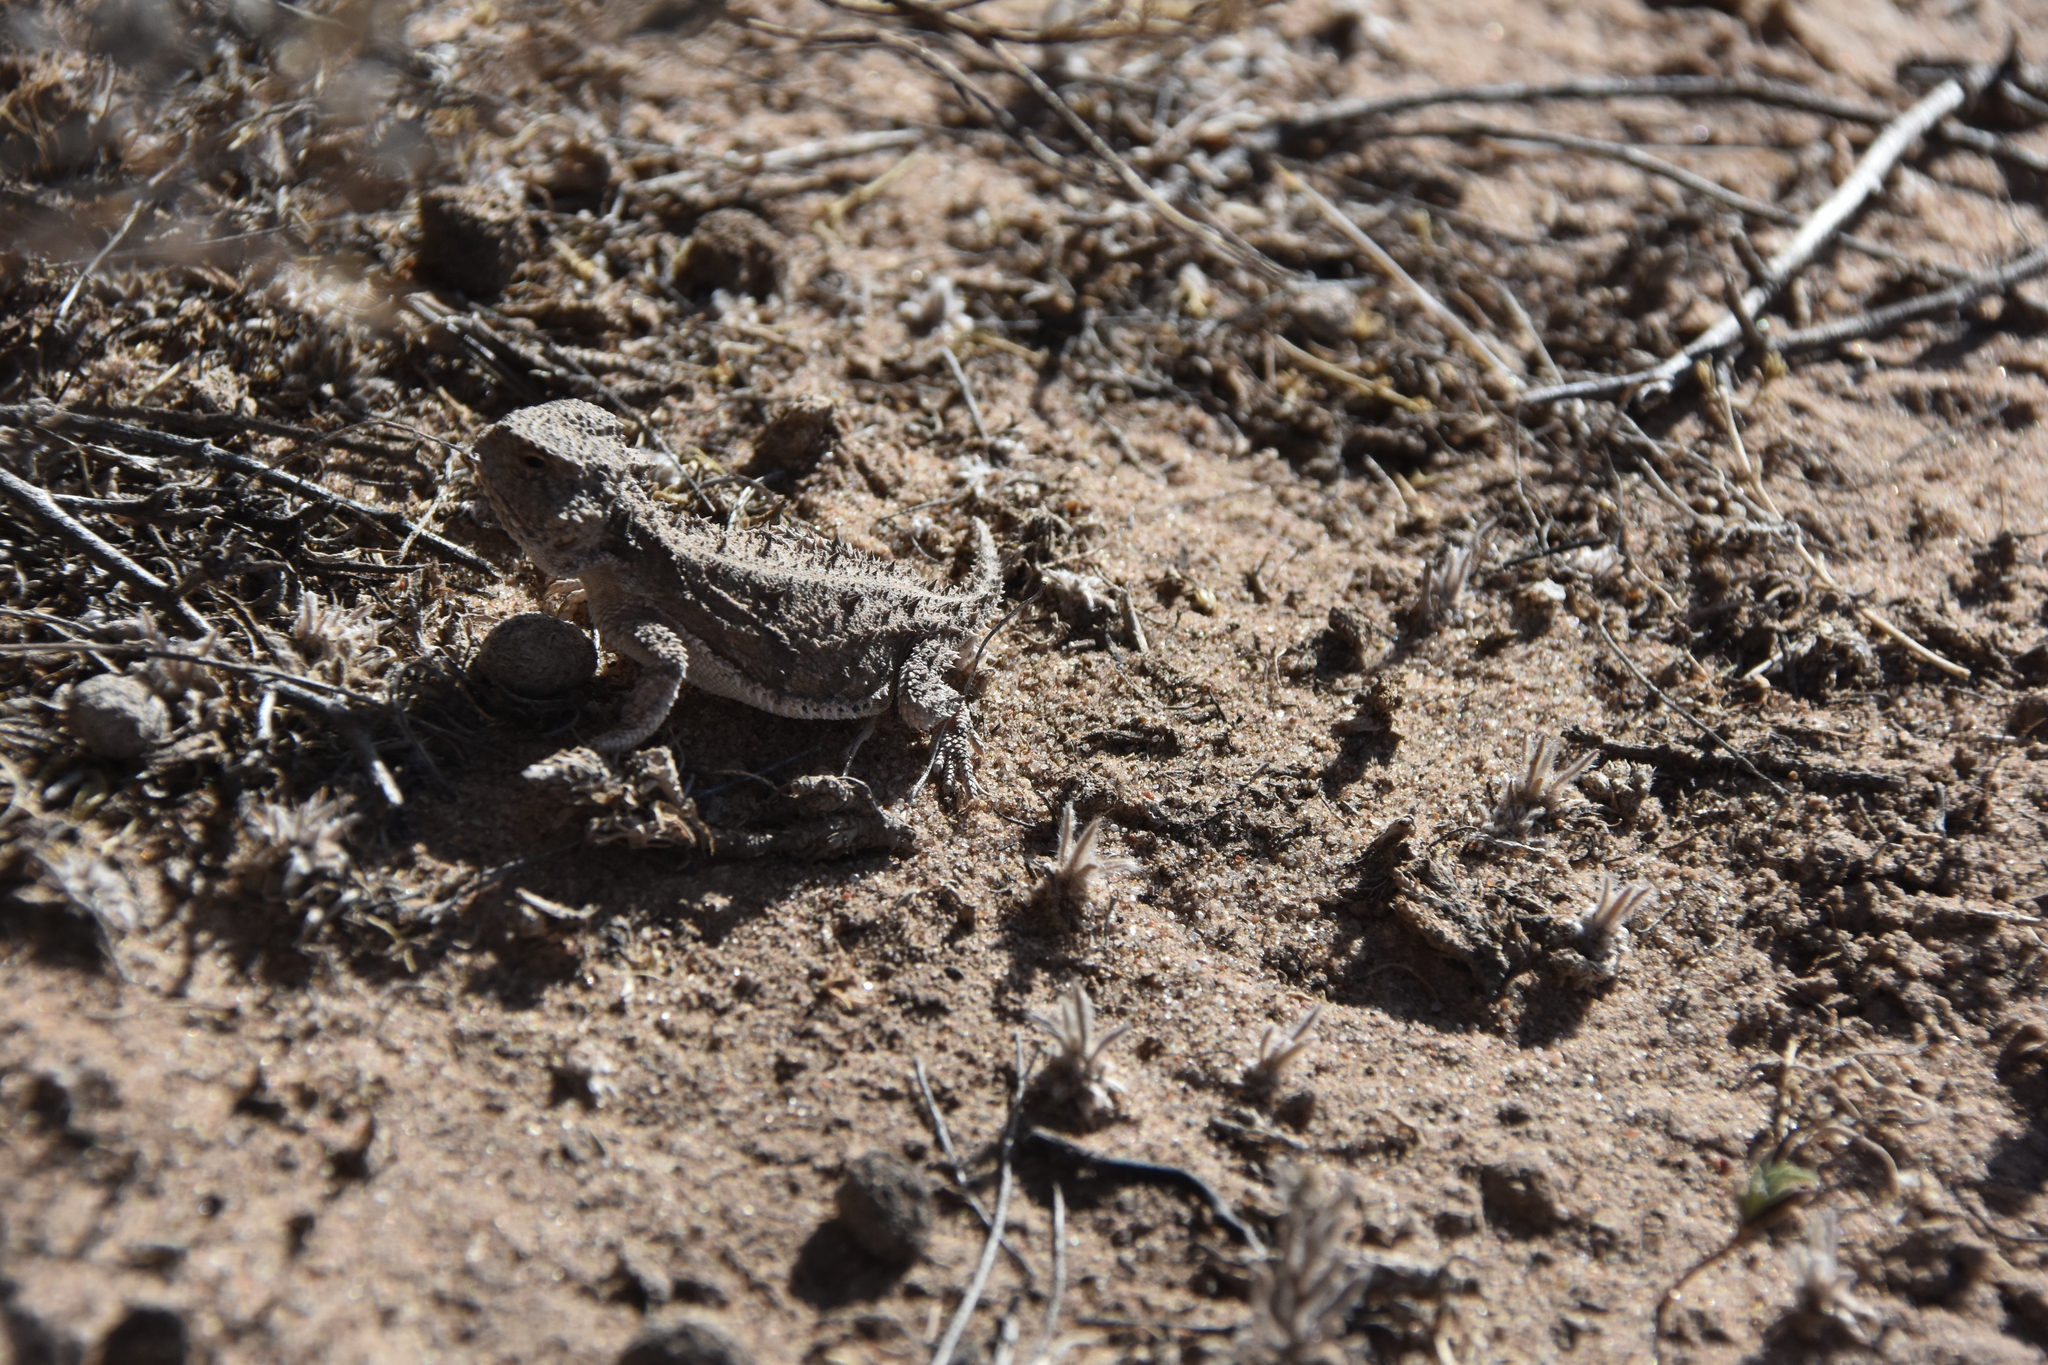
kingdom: Animalia
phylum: Chordata
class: Squamata
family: Phrynosomatidae
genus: Phrynosoma
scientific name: Phrynosoma hernandesi
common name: Greater short-horned lizard
